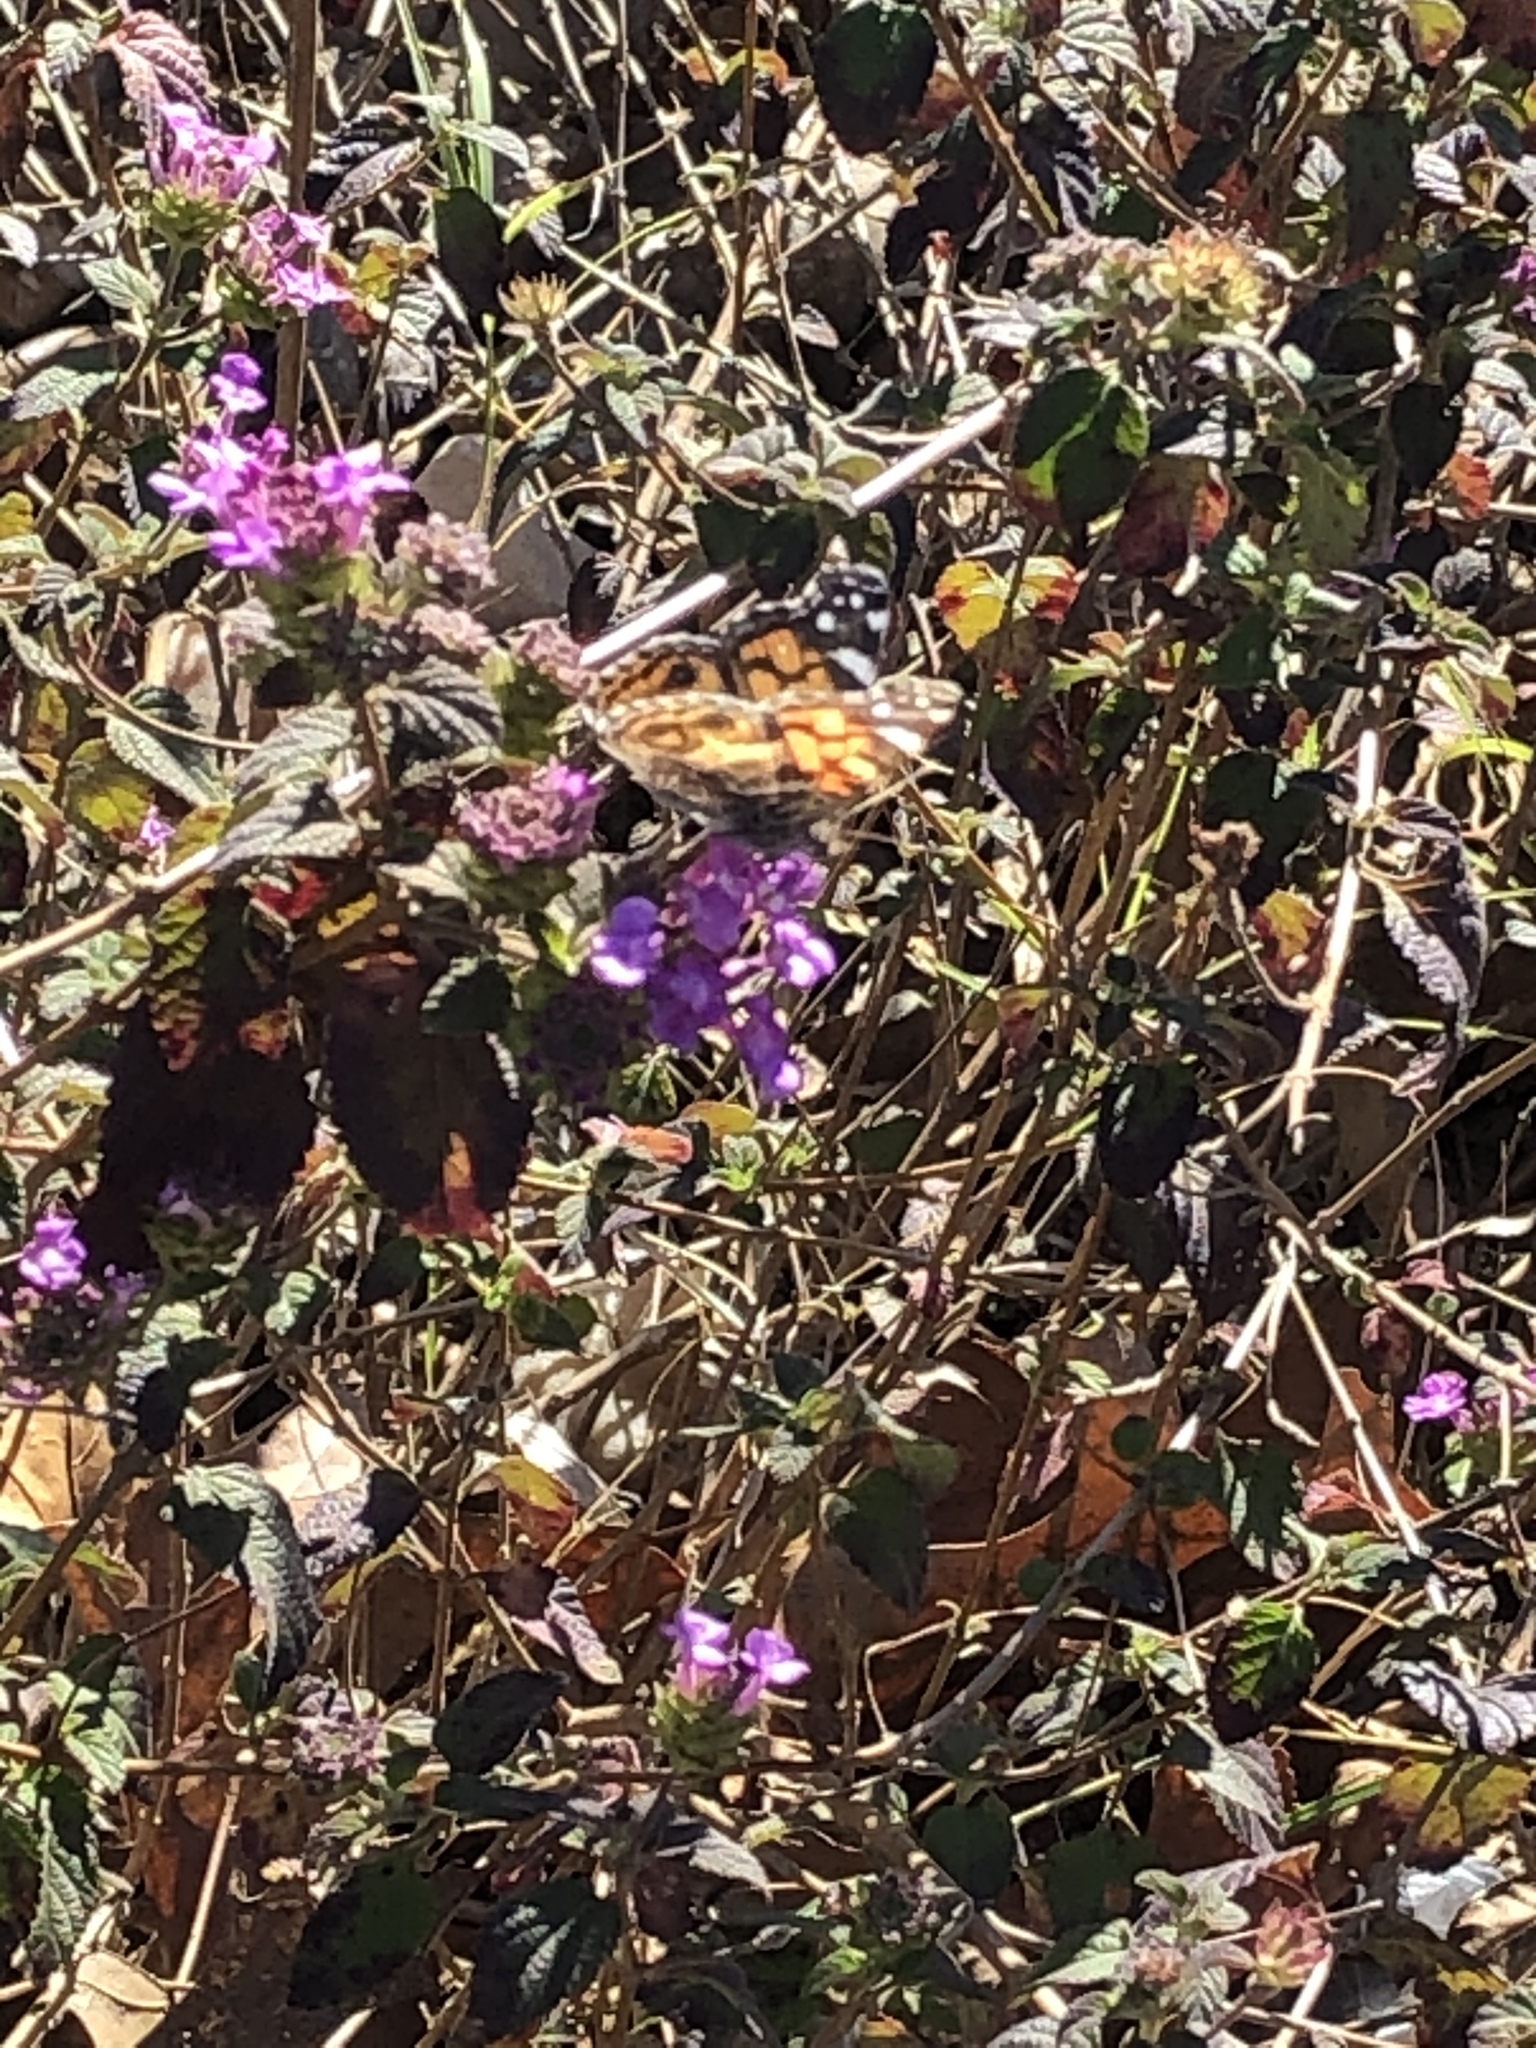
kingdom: Animalia
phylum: Arthropoda
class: Insecta
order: Lepidoptera
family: Nymphalidae
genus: Vanessa
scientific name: Vanessa virginiensis
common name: American lady
